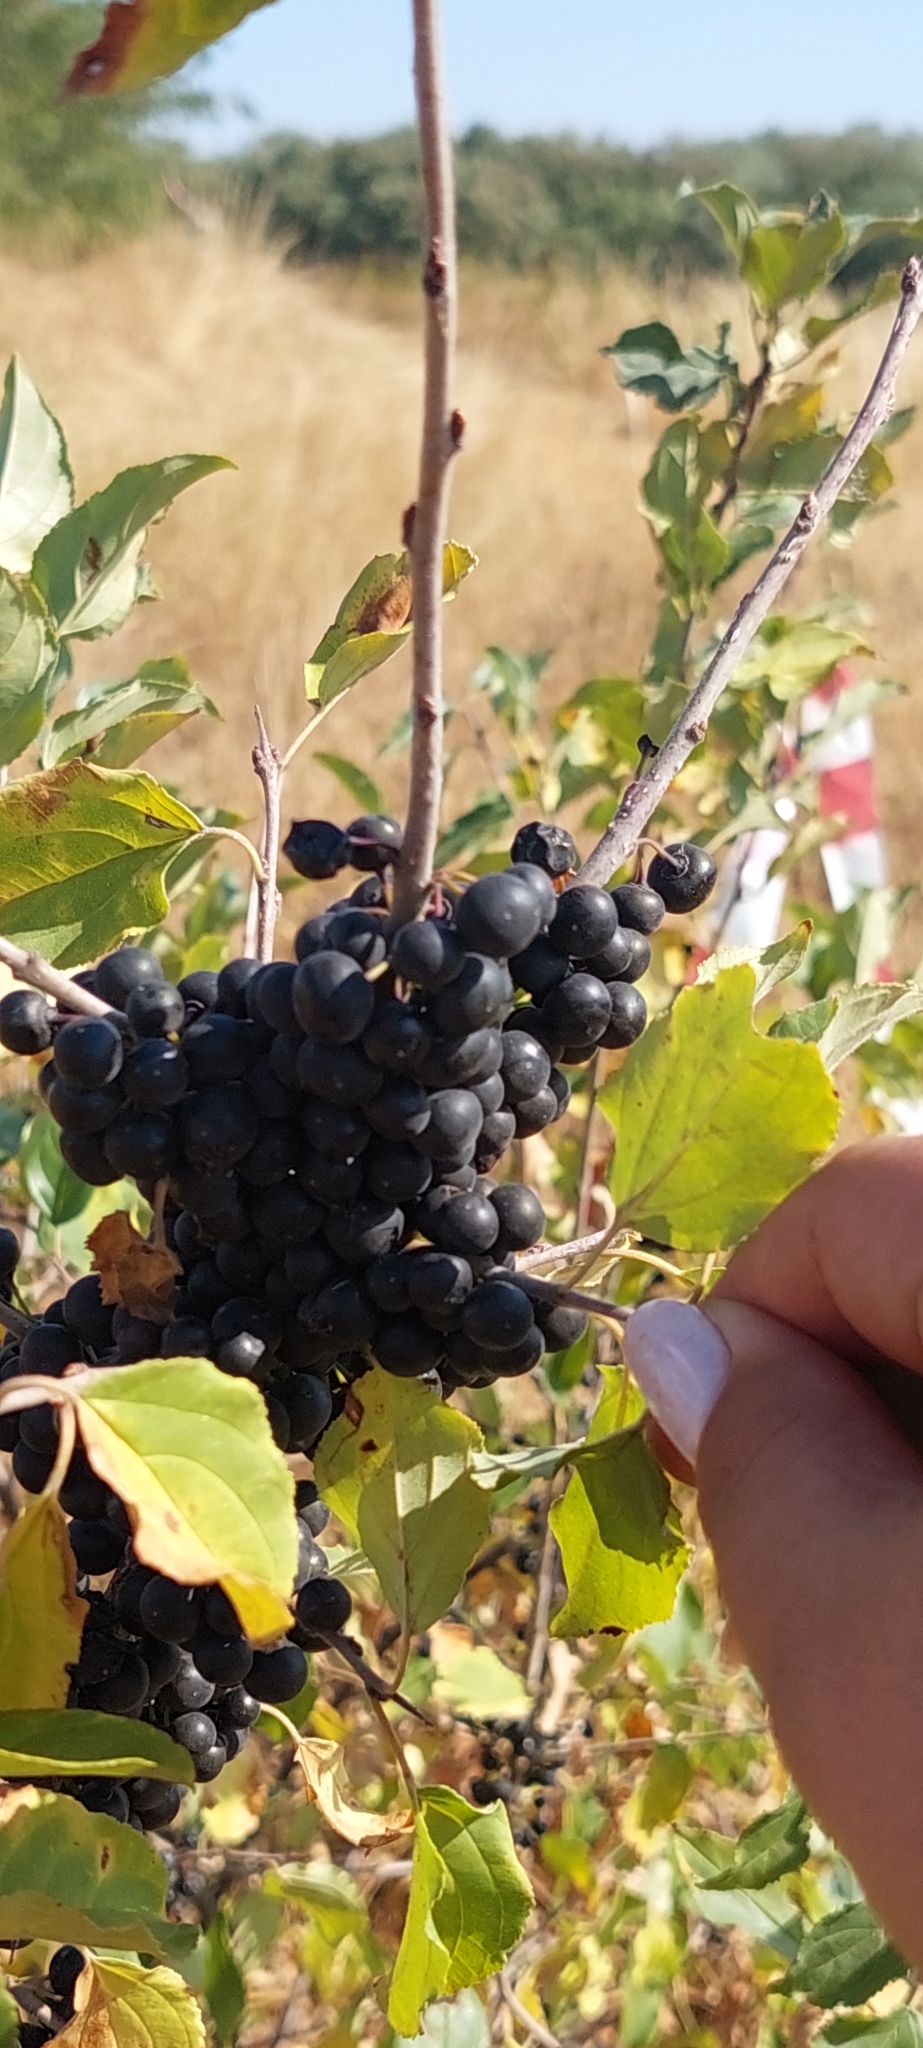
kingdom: Plantae
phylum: Tracheophyta
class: Magnoliopsida
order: Rosales
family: Rhamnaceae
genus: Rhamnus
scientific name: Rhamnus cathartica
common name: Common buckthorn
